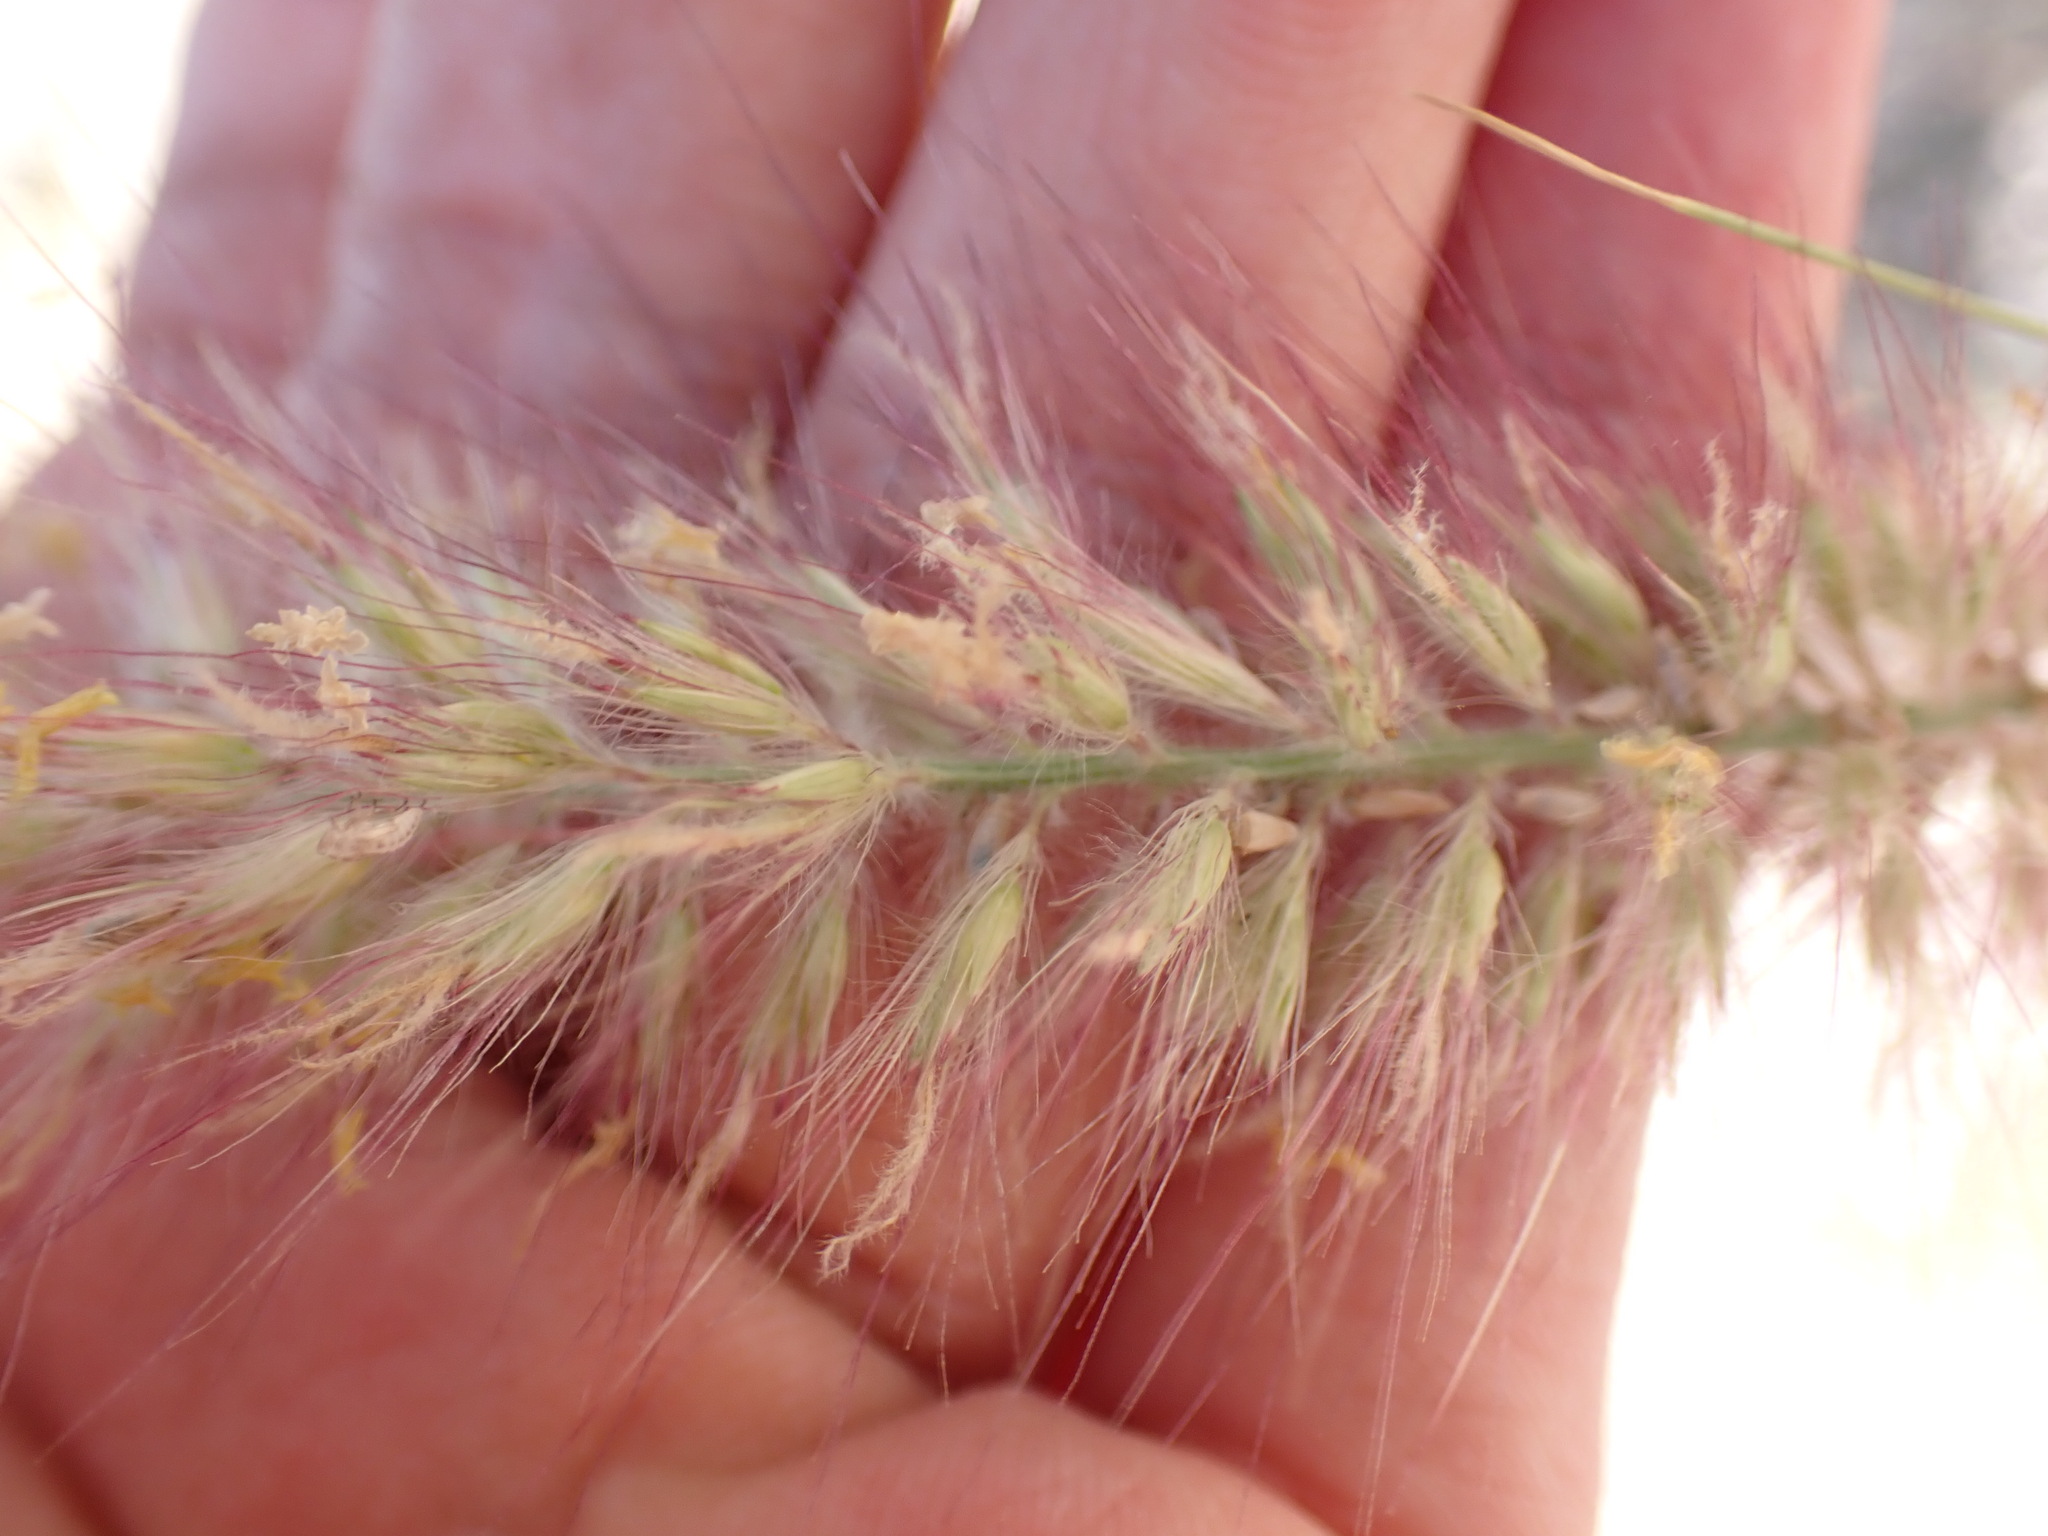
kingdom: Plantae
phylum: Tracheophyta
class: Liliopsida
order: Poales
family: Poaceae
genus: Cenchrus
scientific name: Cenchrus setaceus
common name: Crimson fountaingrass
